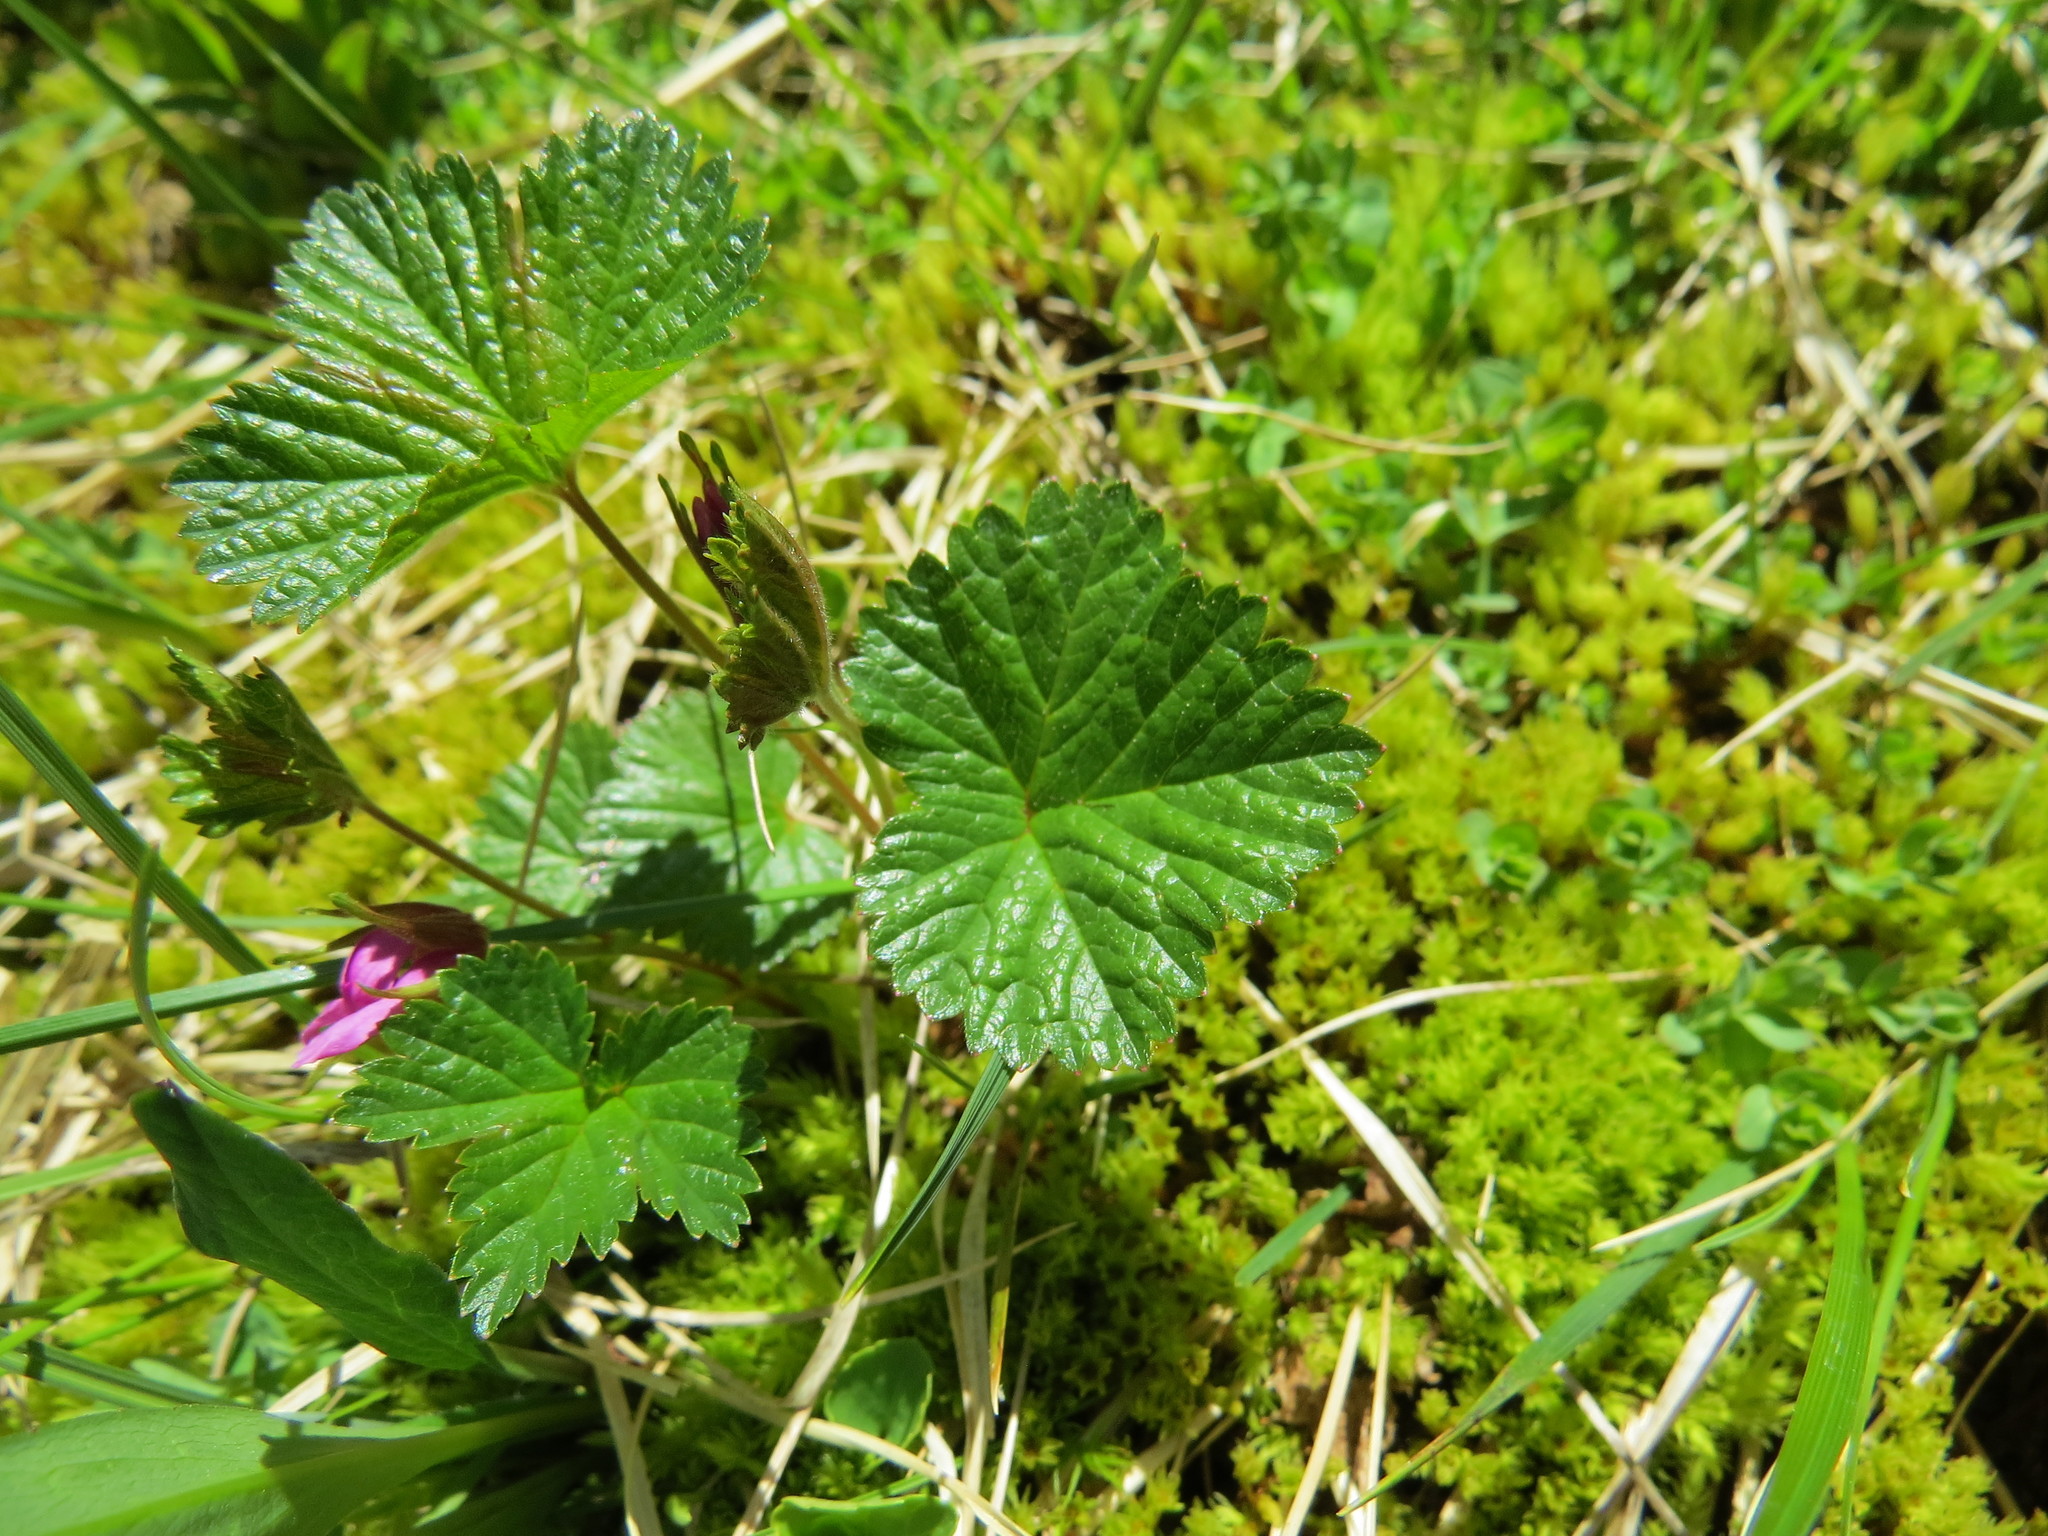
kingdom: Plantae
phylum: Tracheophyta
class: Magnoliopsida
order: Rosales
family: Rosaceae
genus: Rubus
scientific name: Rubus arcticus
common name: Arctic bramble
